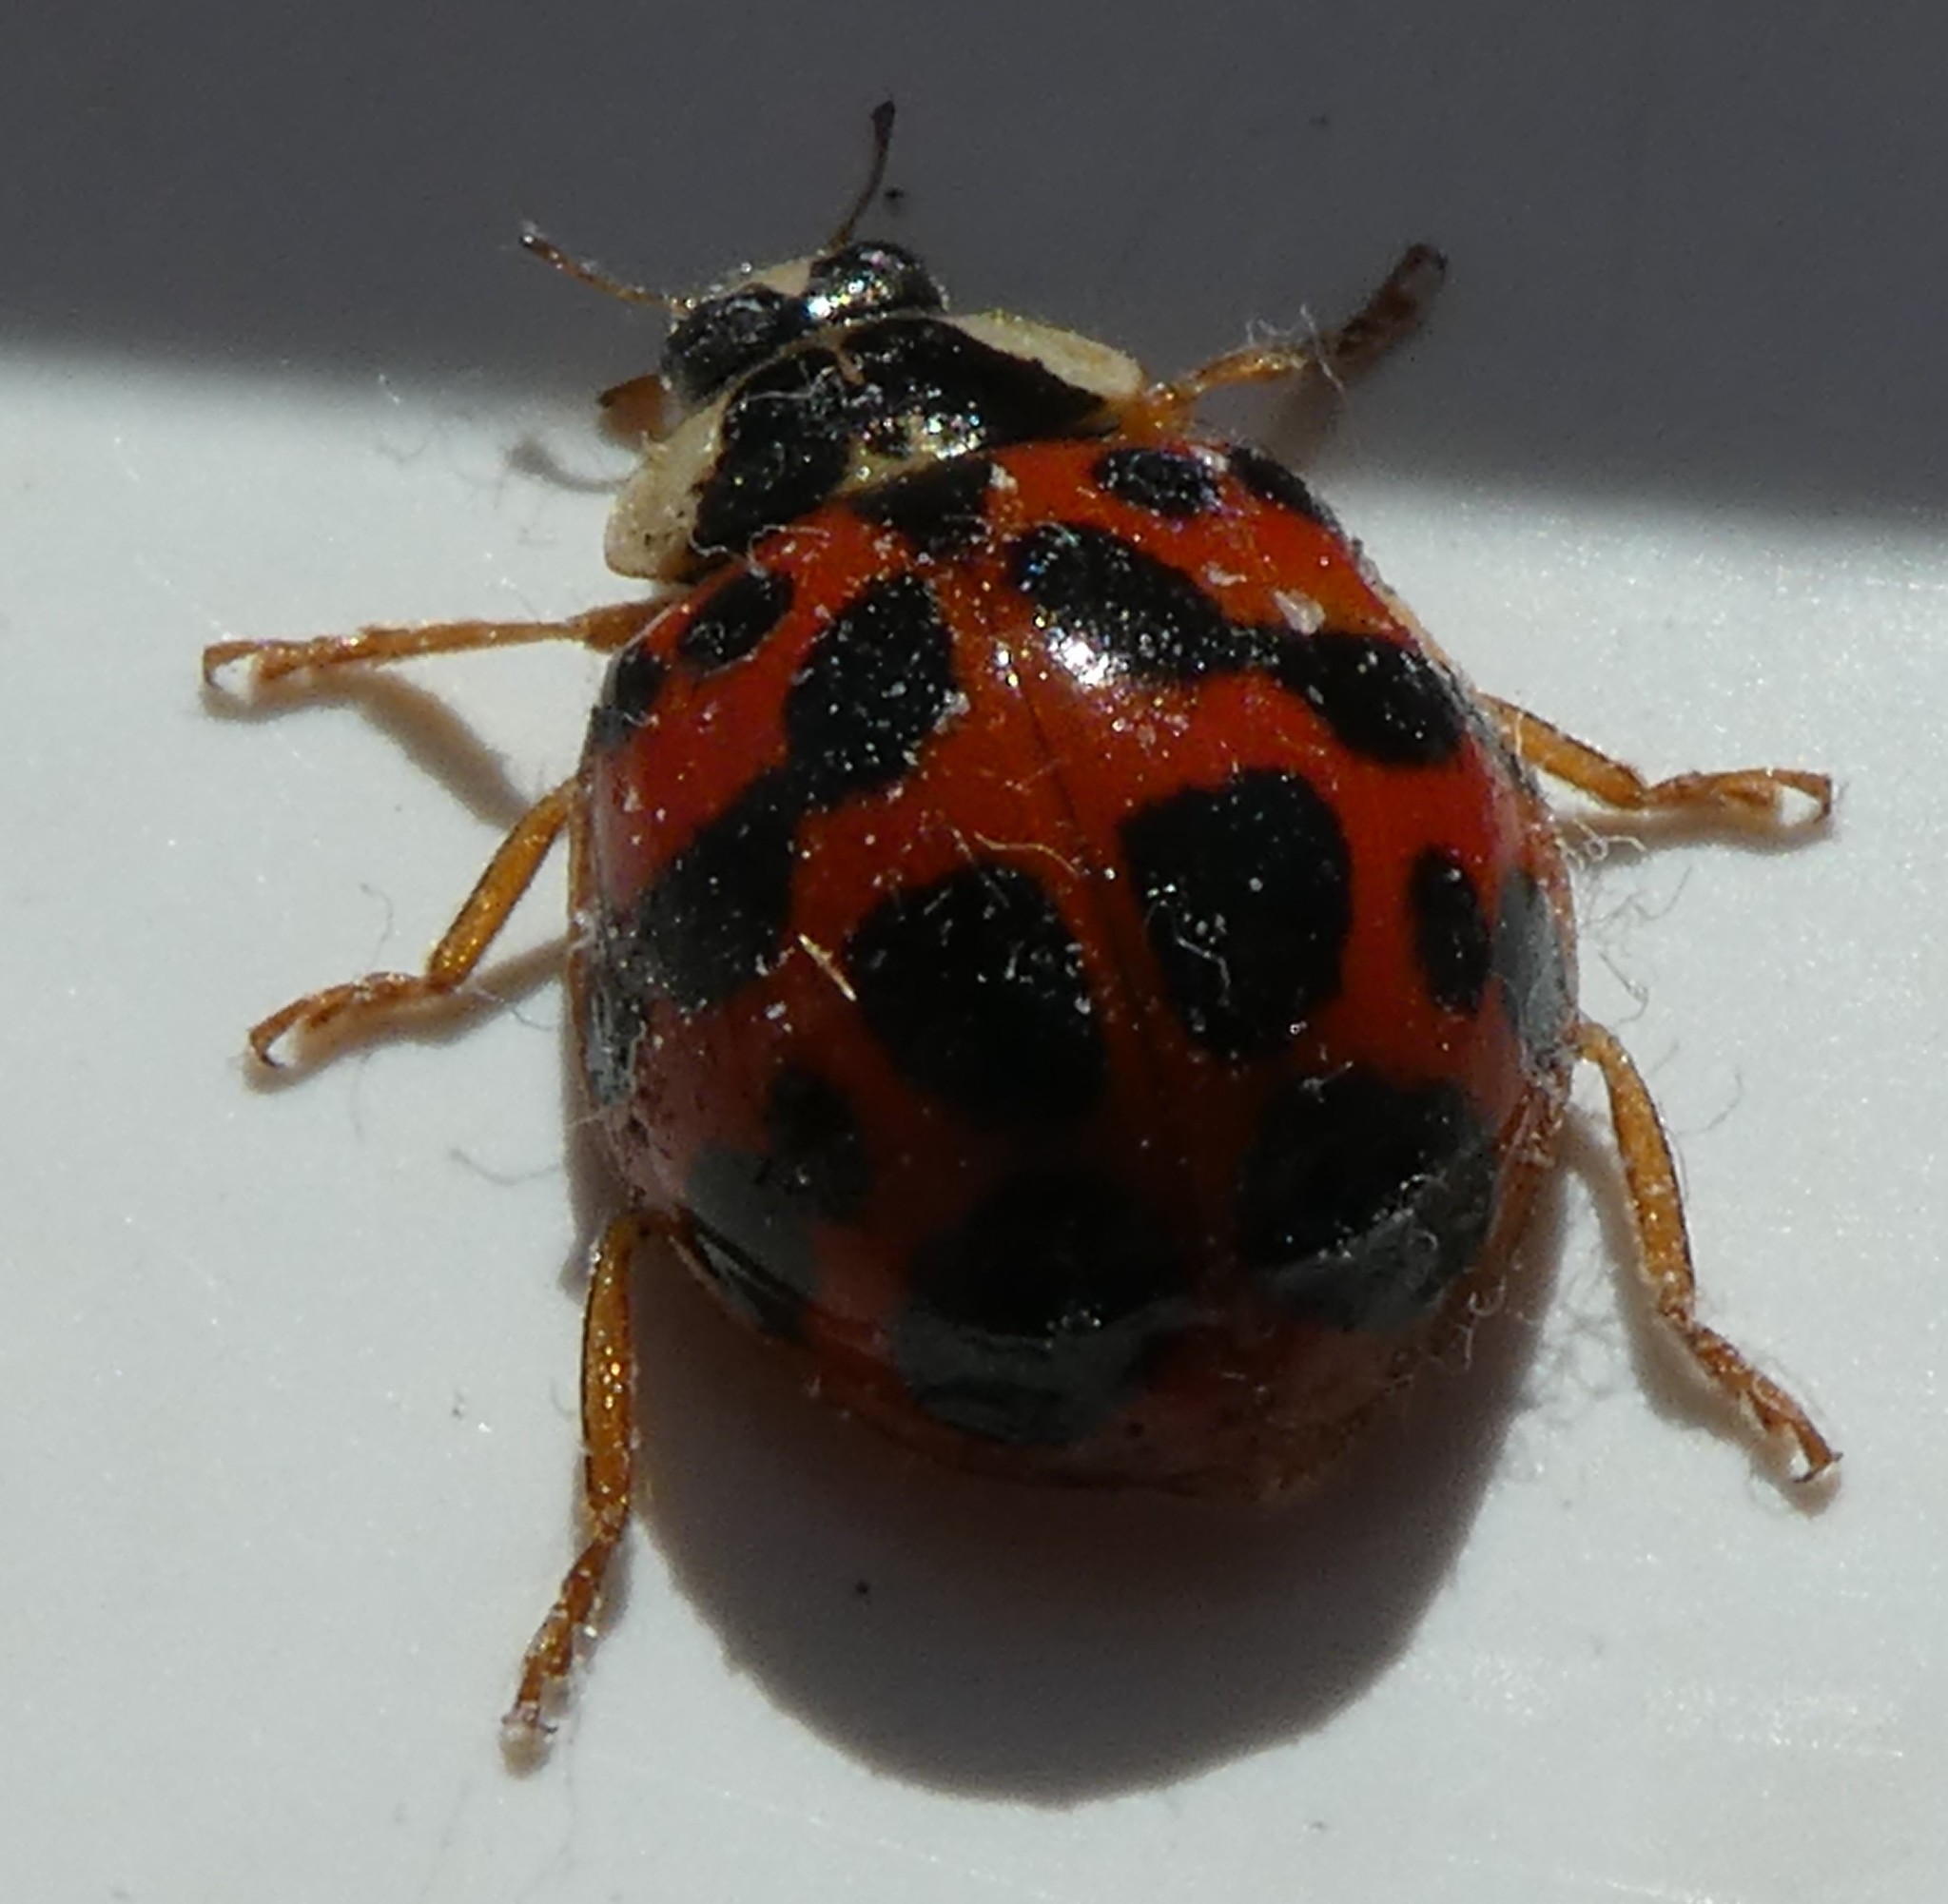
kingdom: Animalia
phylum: Arthropoda
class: Insecta
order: Coleoptera
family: Coccinellidae
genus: Harmonia
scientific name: Harmonia axyridis
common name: Harlequin ladybird
